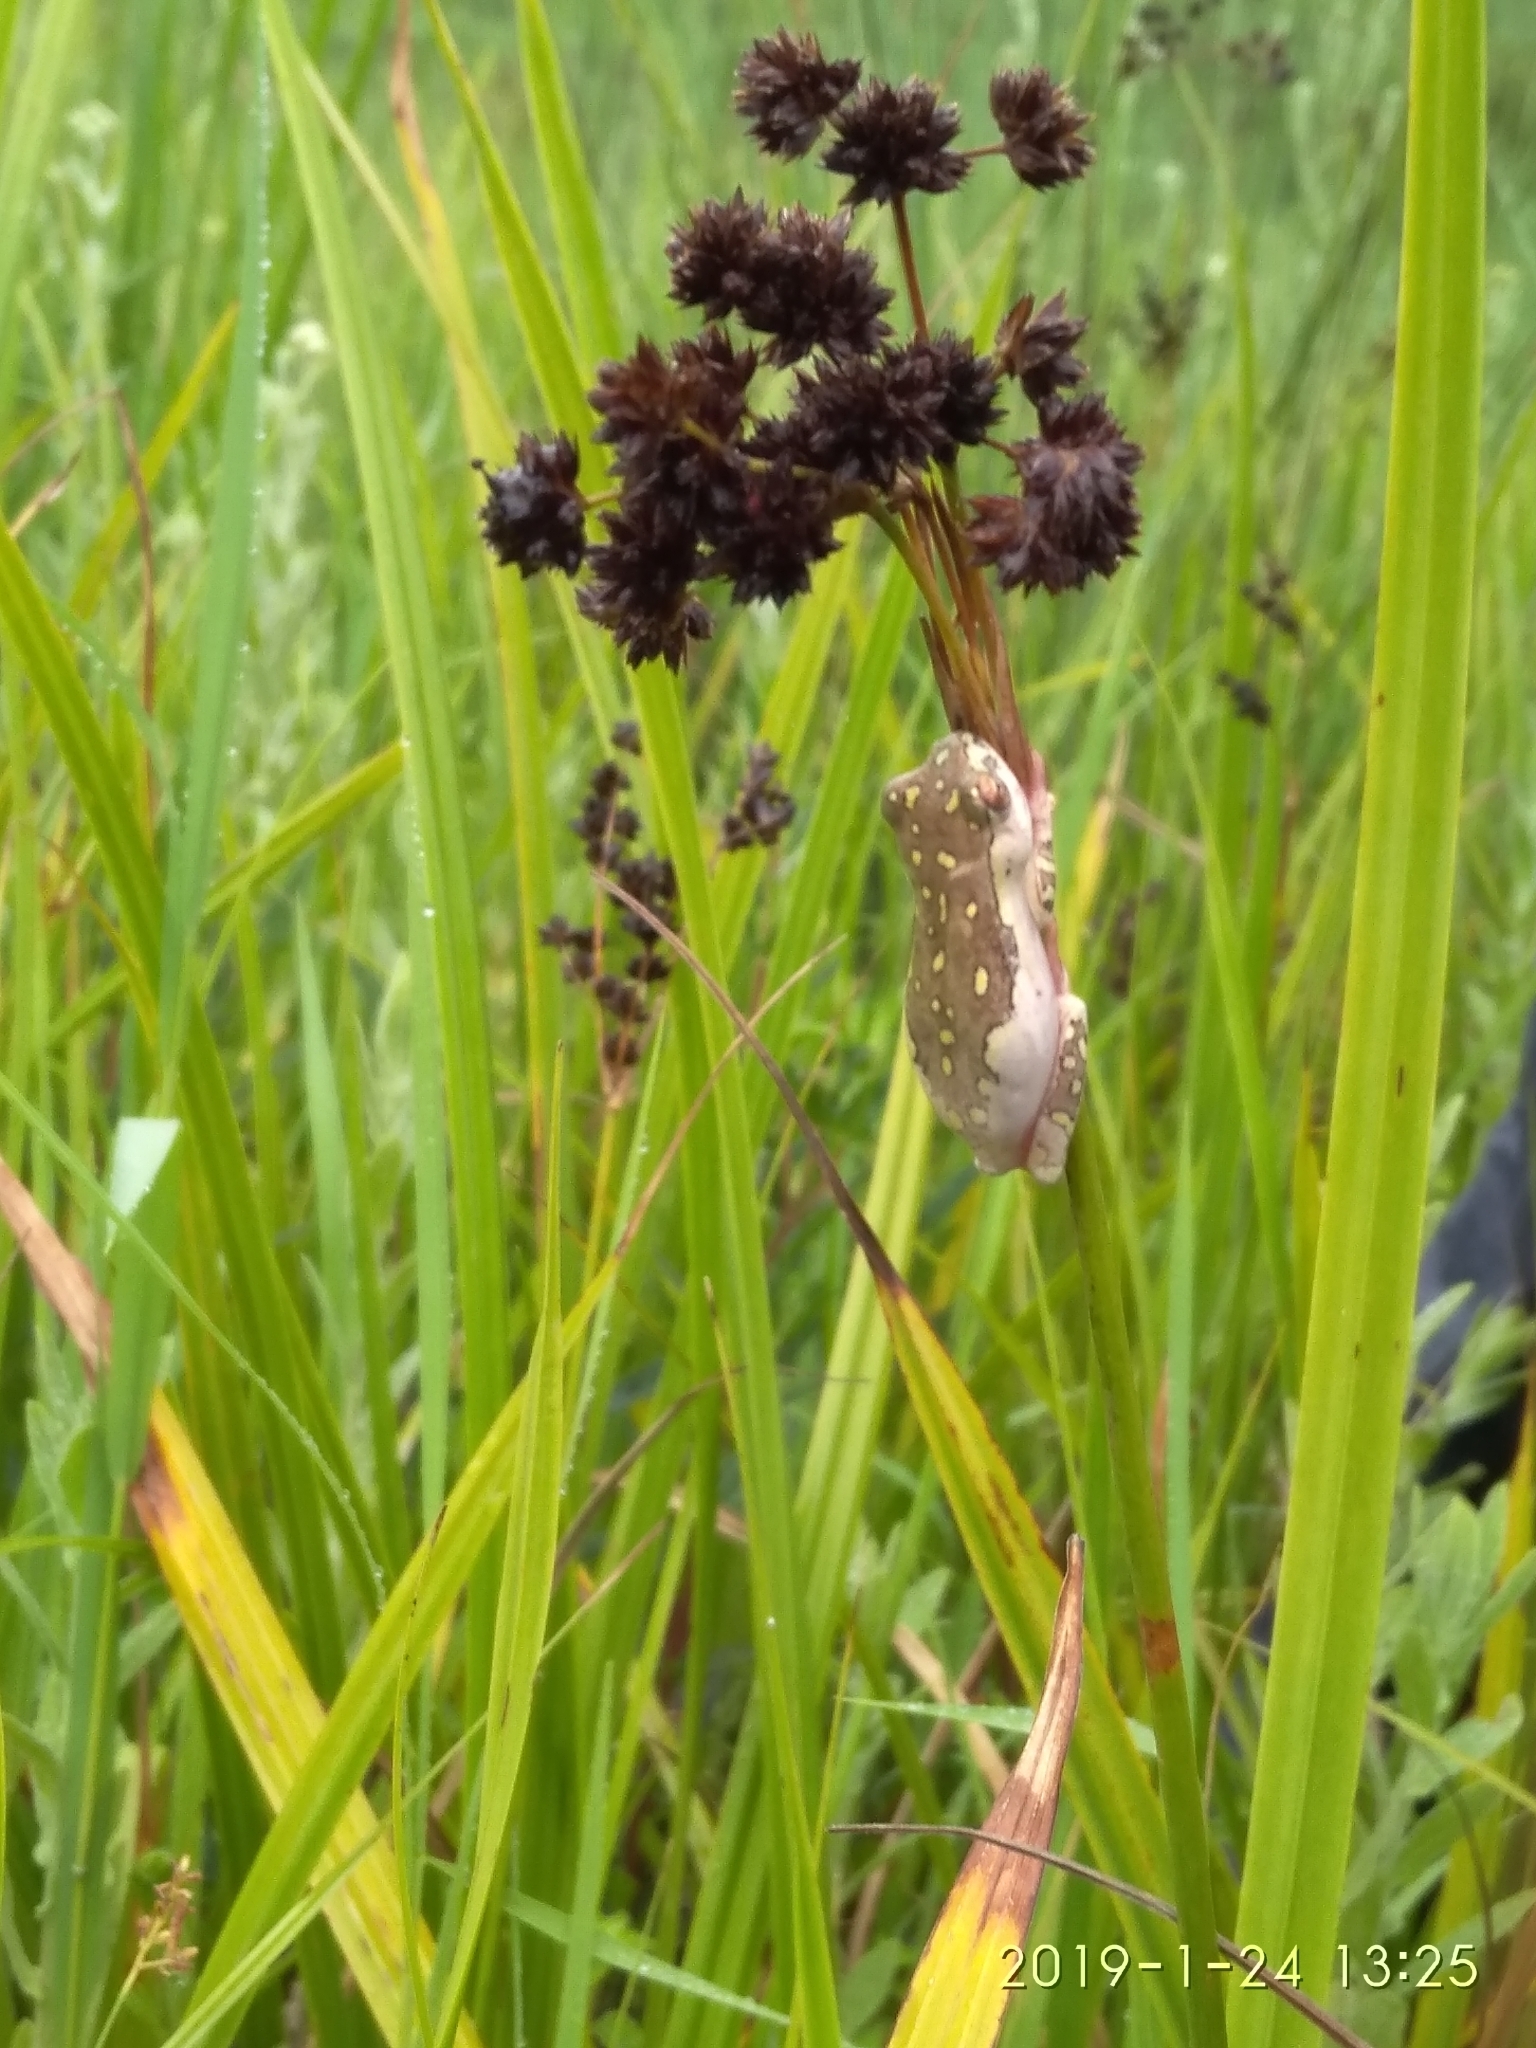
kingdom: Animalia
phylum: Chordata
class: Amphibia
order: Anura
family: Hyperoliidae
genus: Hyperolius
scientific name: Hyperolius marmoratus
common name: Painted reed frog
